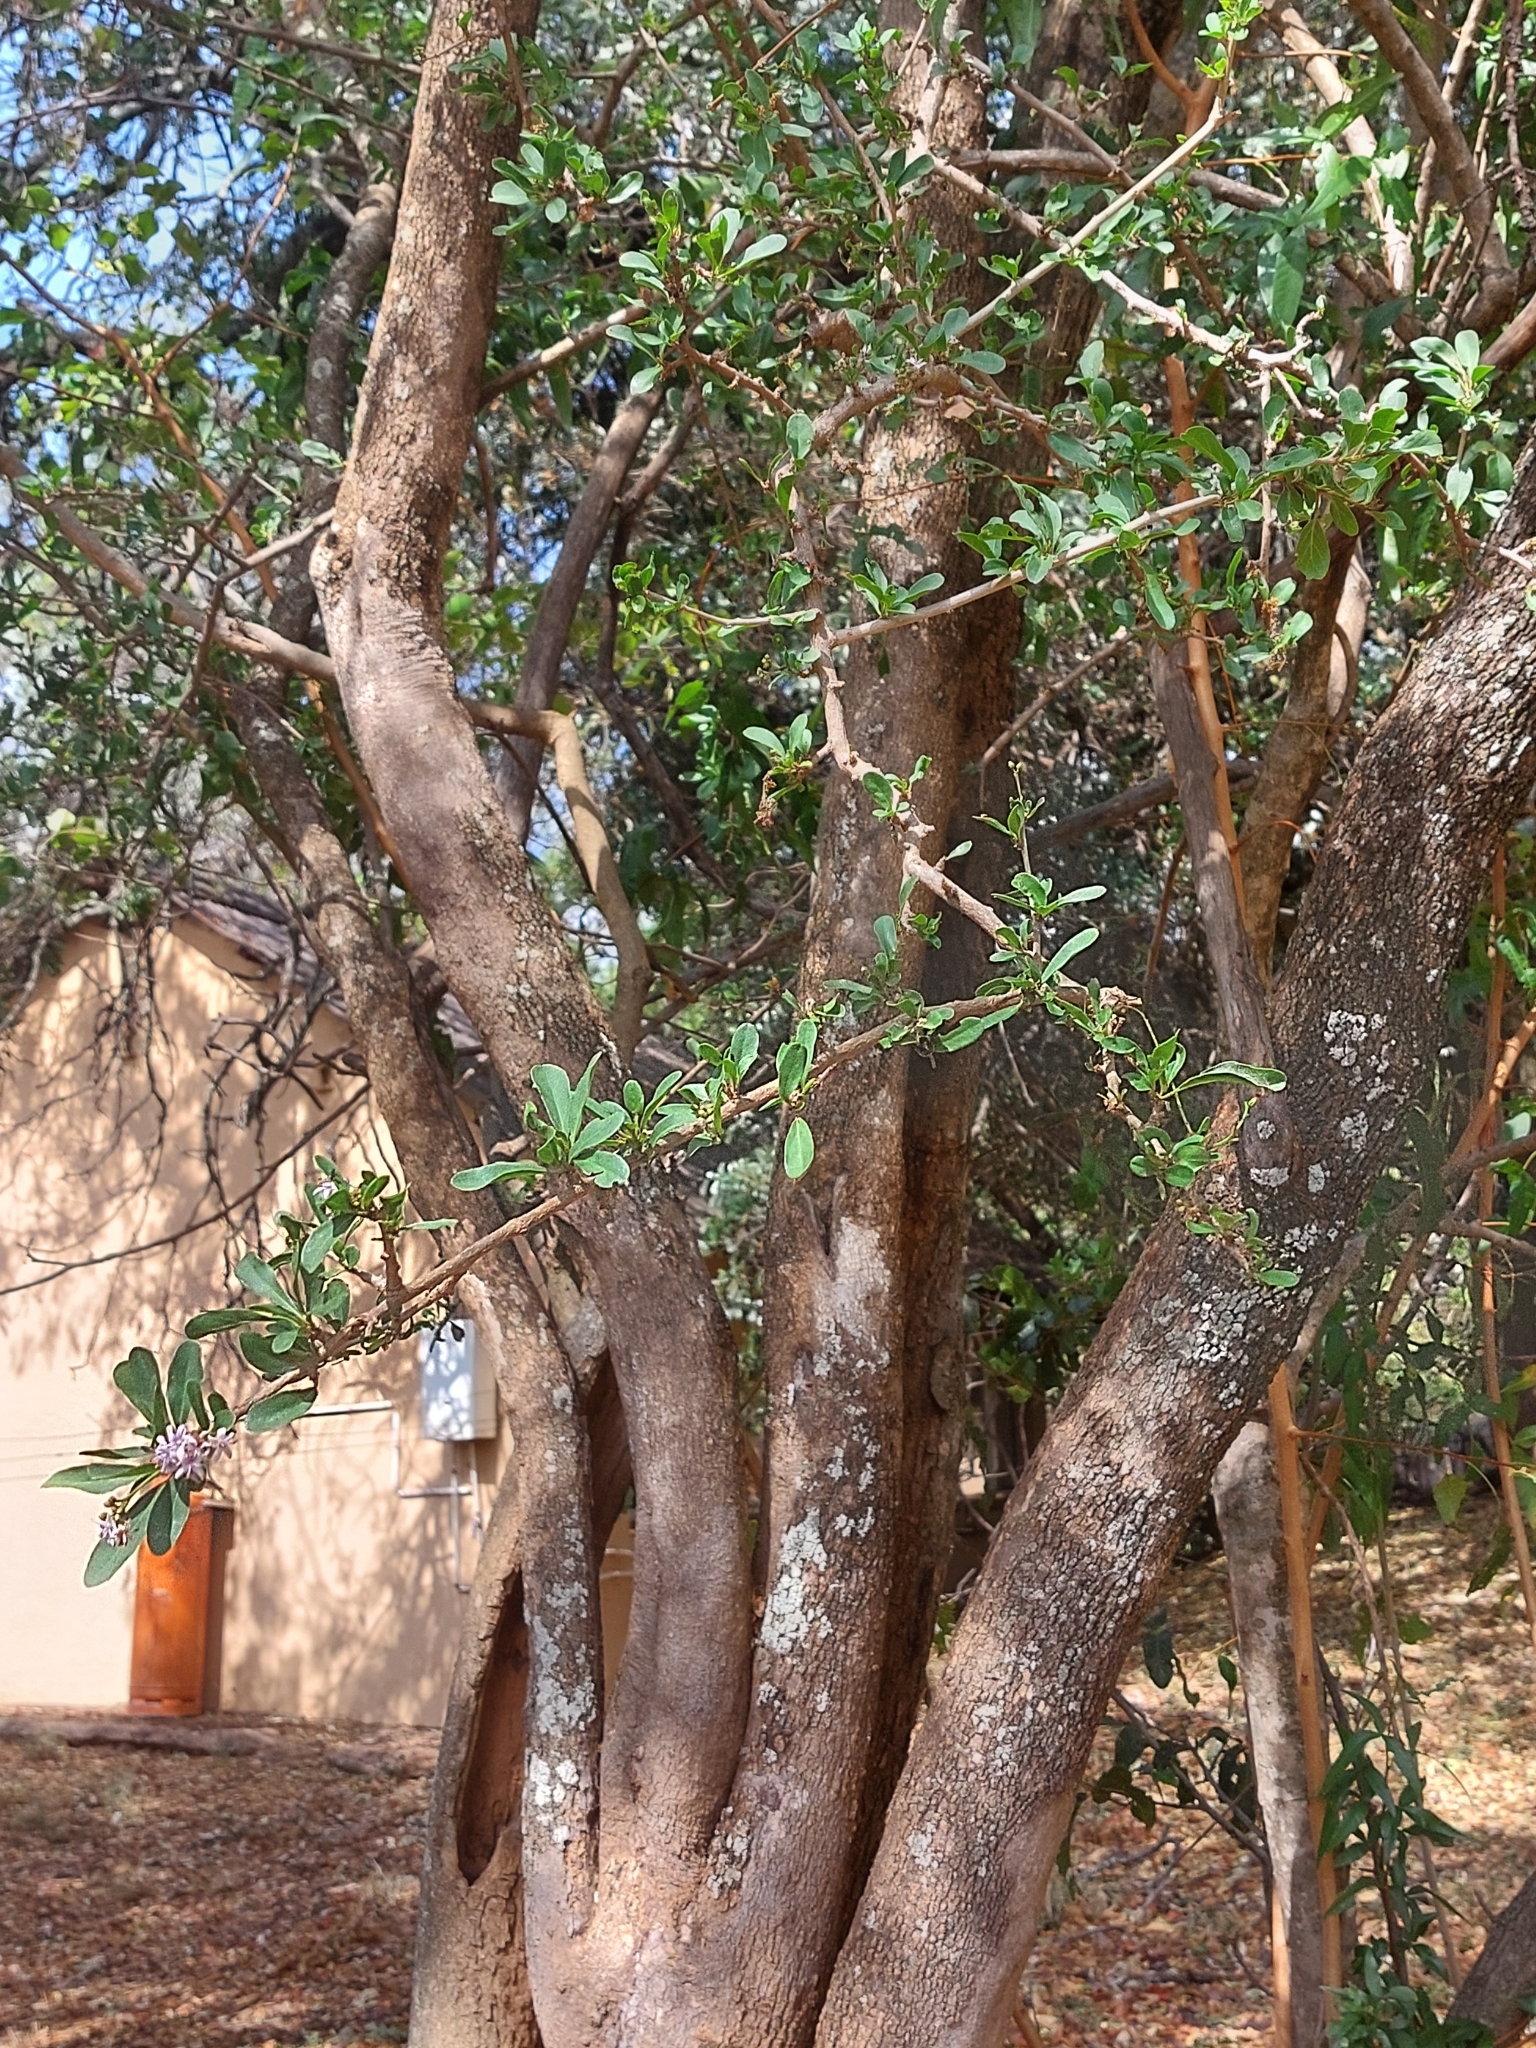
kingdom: Plantae
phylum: Tracheophyta
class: Magnoliopsida
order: Boraginales
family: Ehretiaceae
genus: Ehretia
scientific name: Ehretia rigida
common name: Cape lilac
